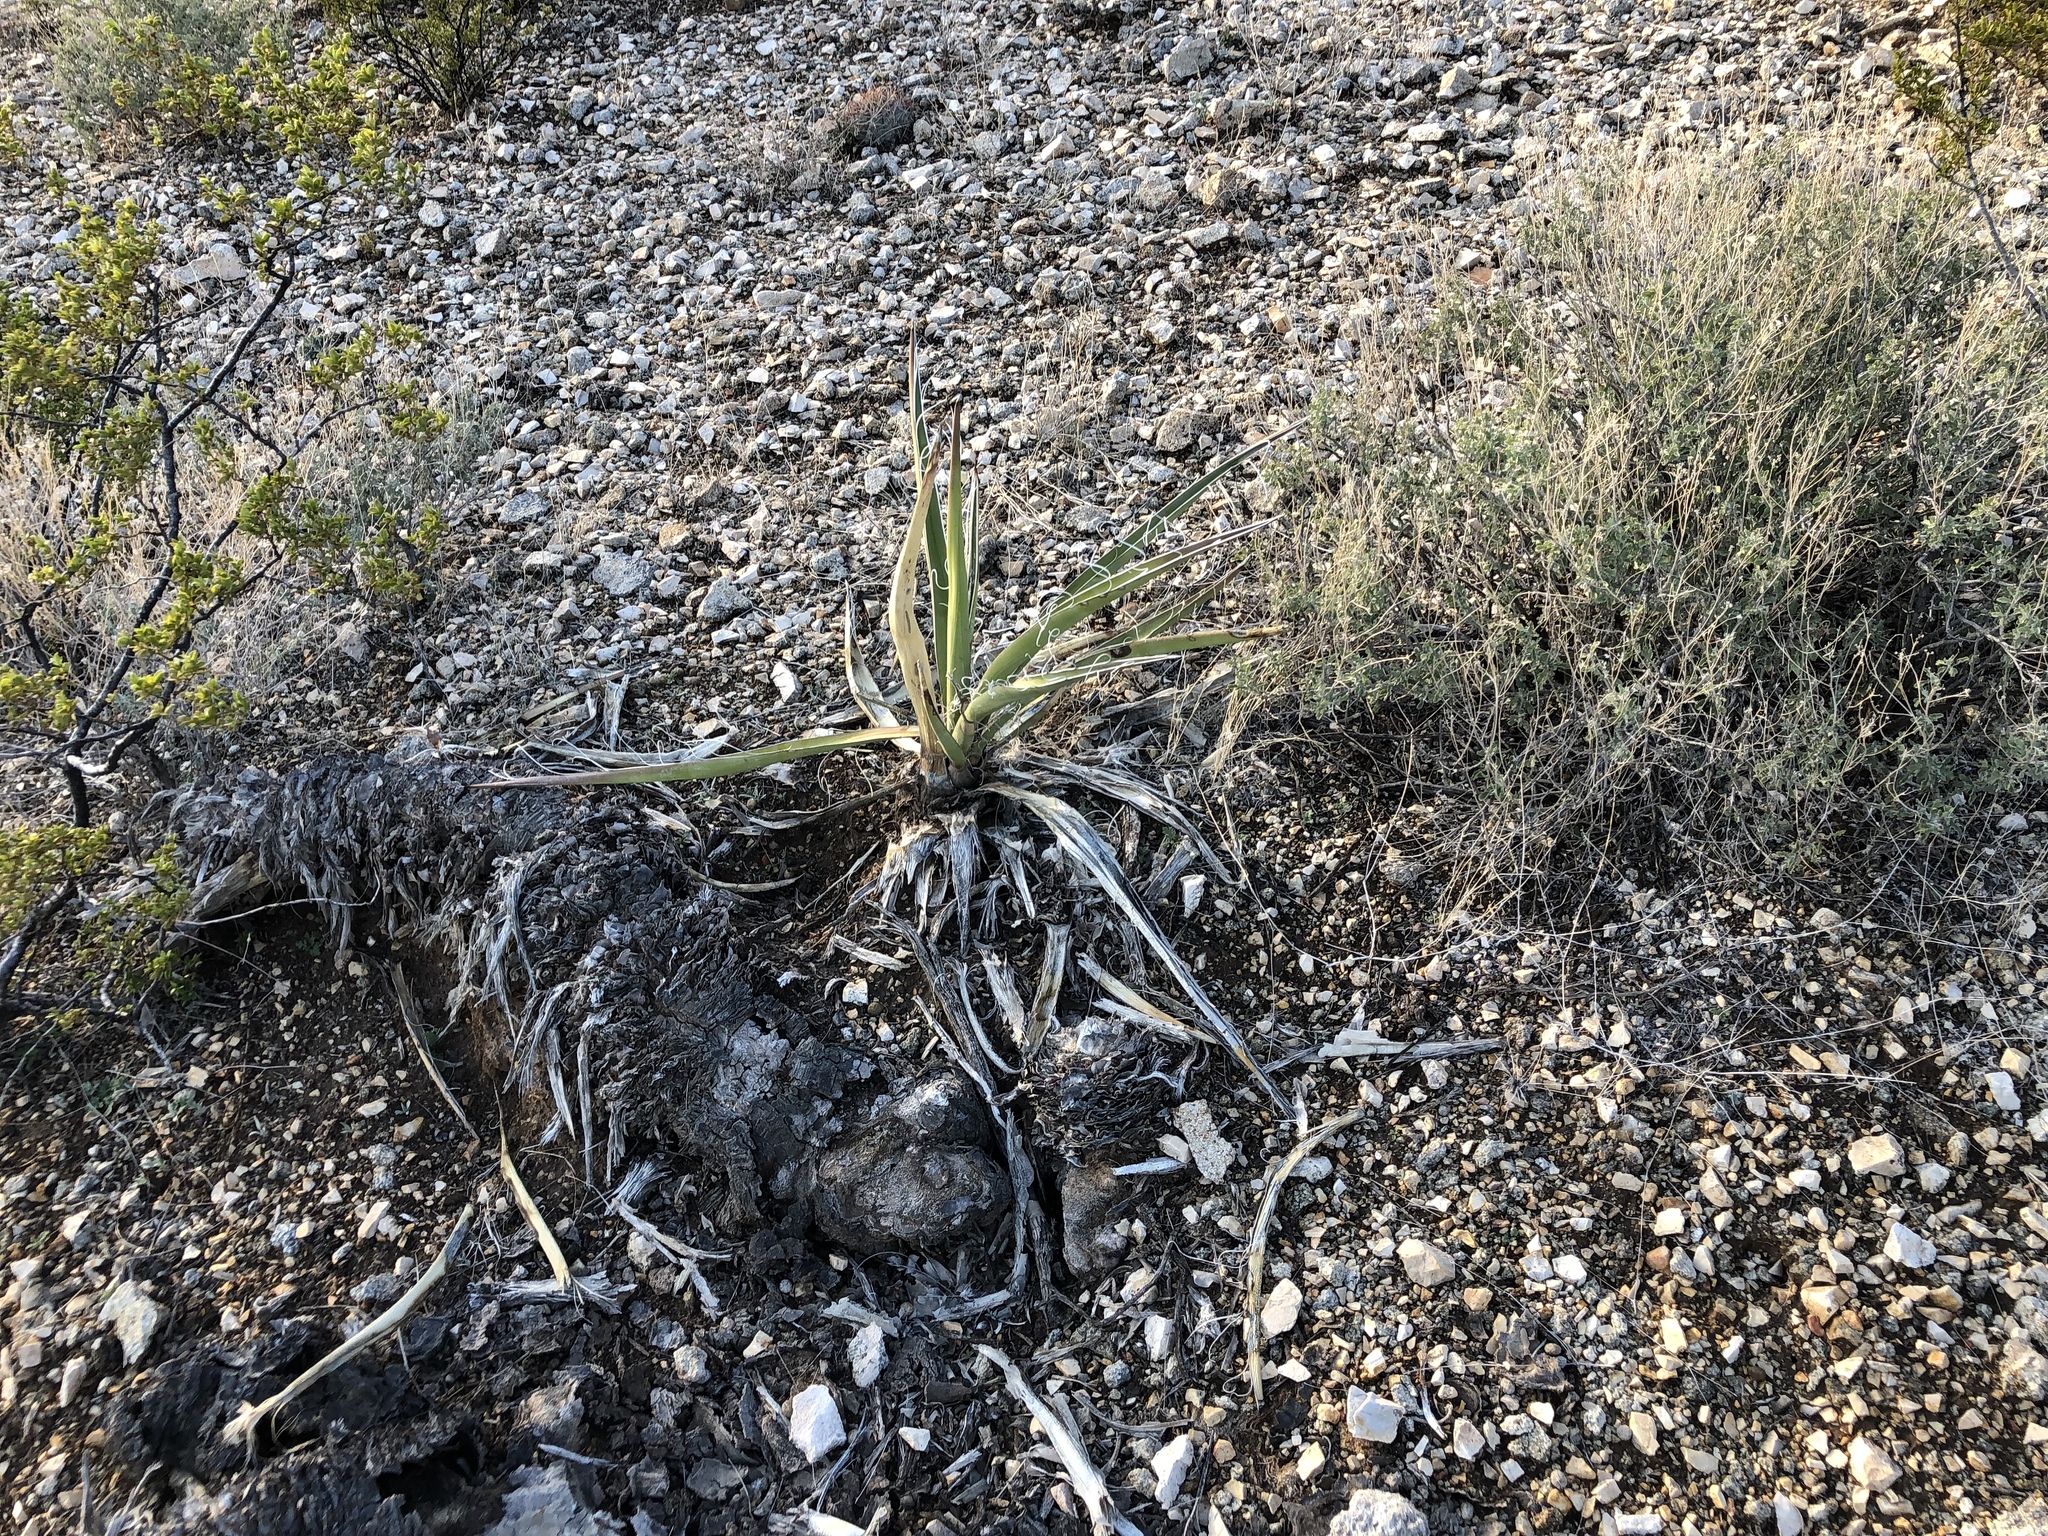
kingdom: Plantae
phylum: Tracheophyta
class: Liliopsida
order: Asparagales
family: Asparagaceae
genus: Yucca
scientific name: Yucca baccata
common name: Banana yucca
